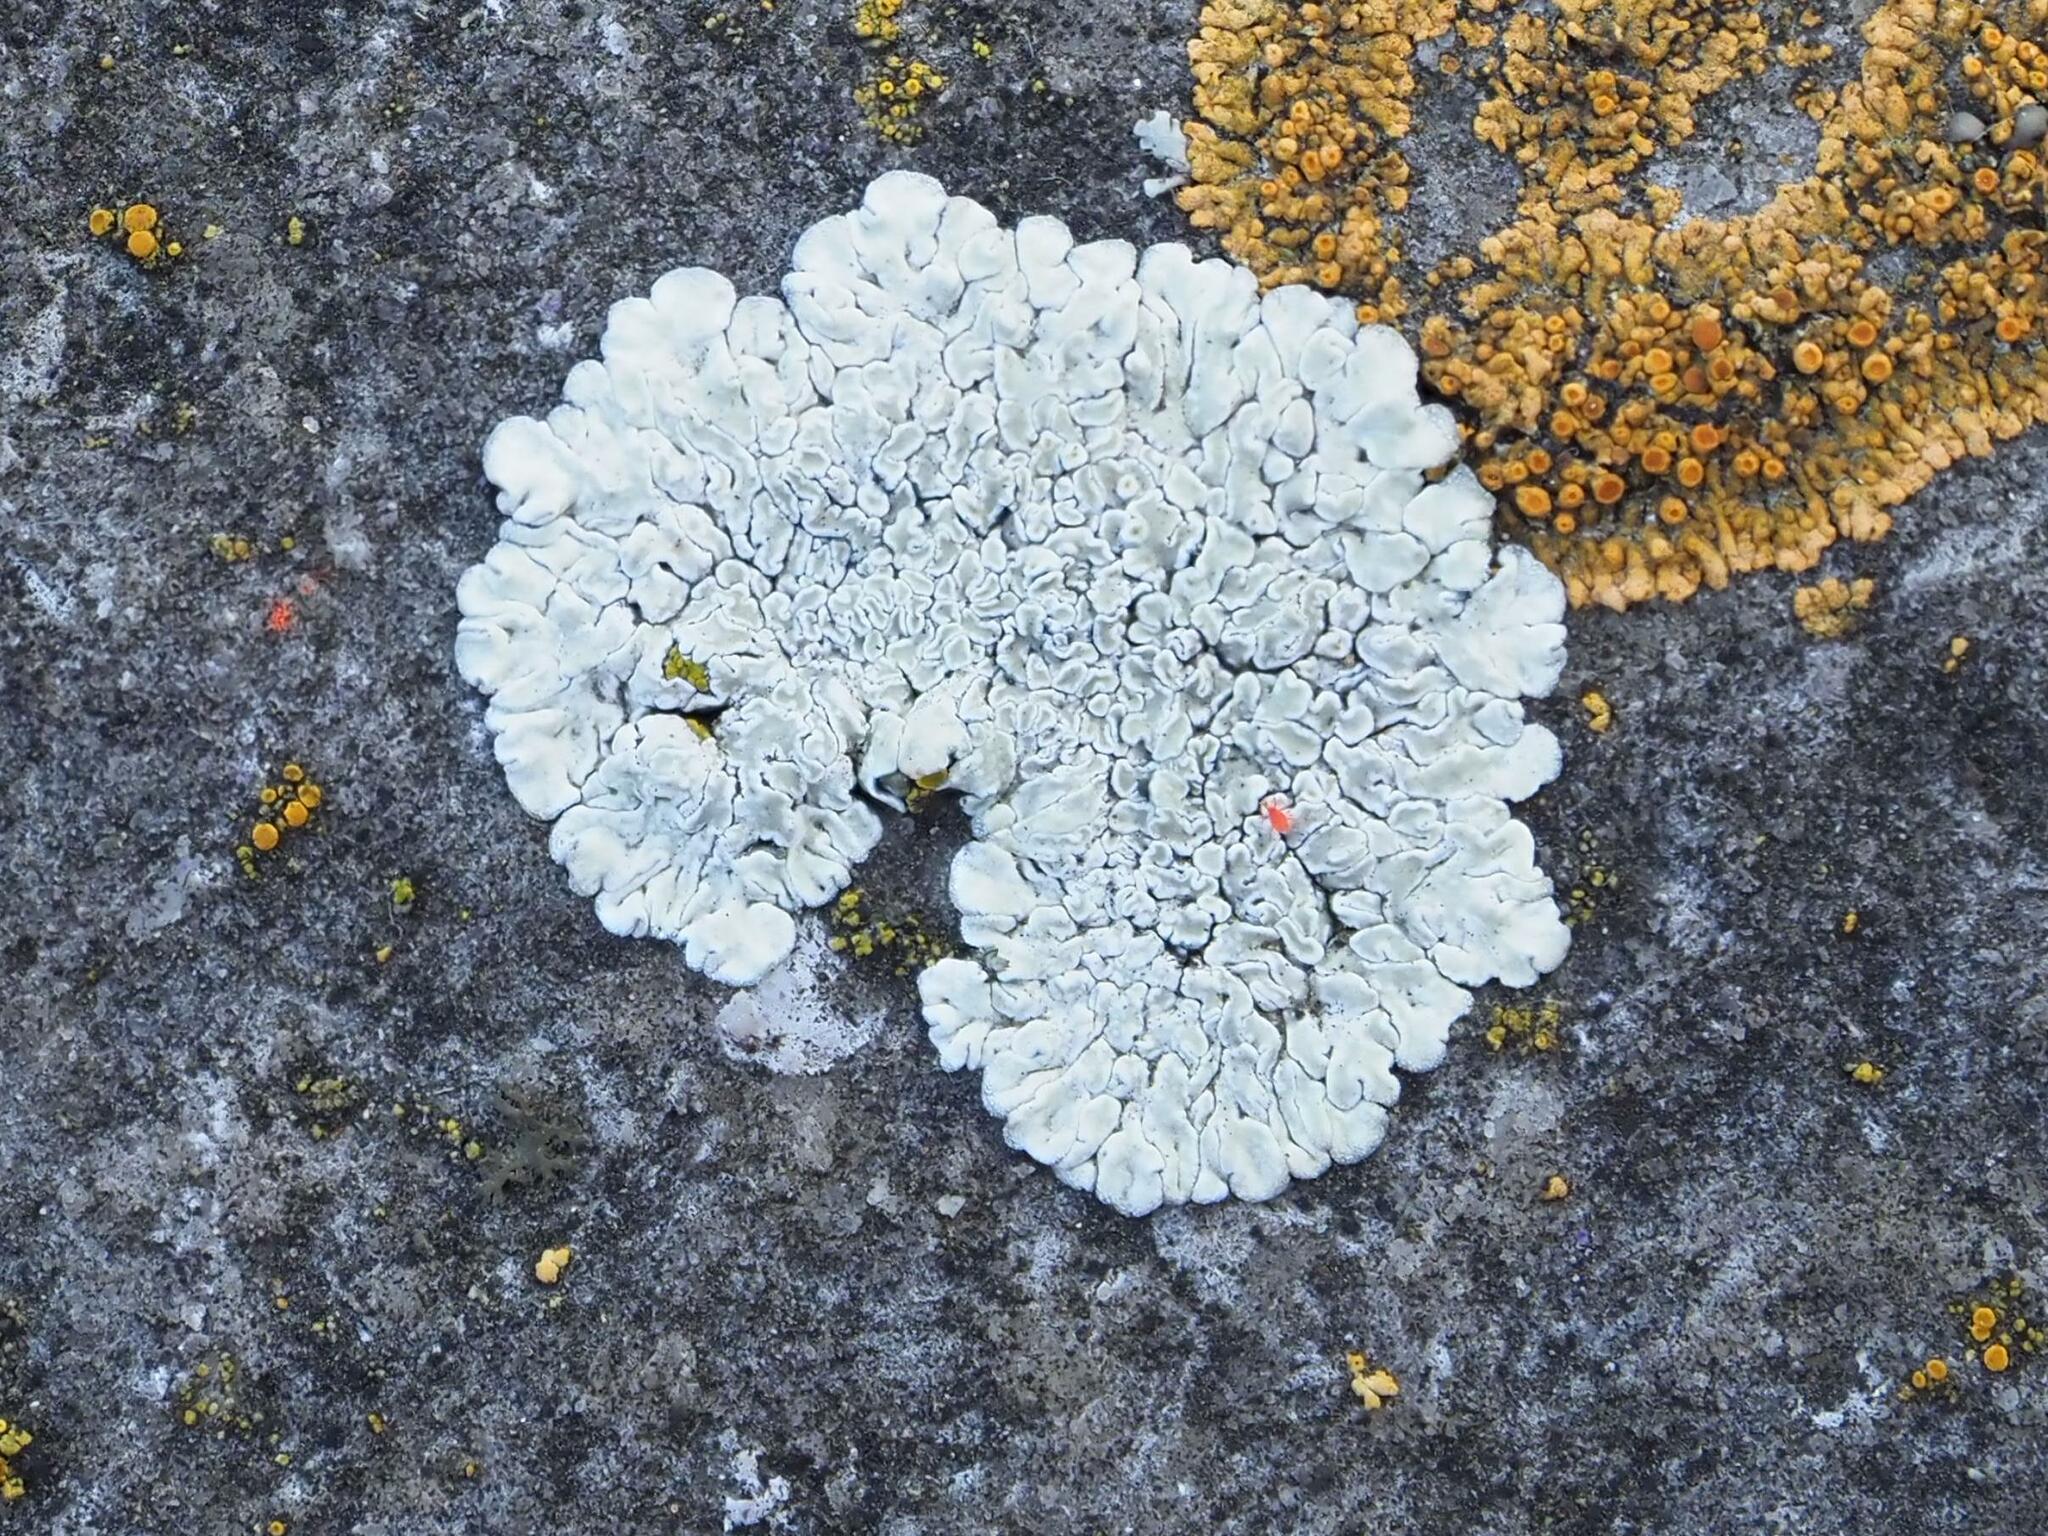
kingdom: Fungi
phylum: Ascomycota
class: Lecanoromycetes
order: Lecanorales
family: Lecanoraceae
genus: Protoparmeliopsis
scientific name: Protoparmeliopsis muralis
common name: Stonewall rim lichen
